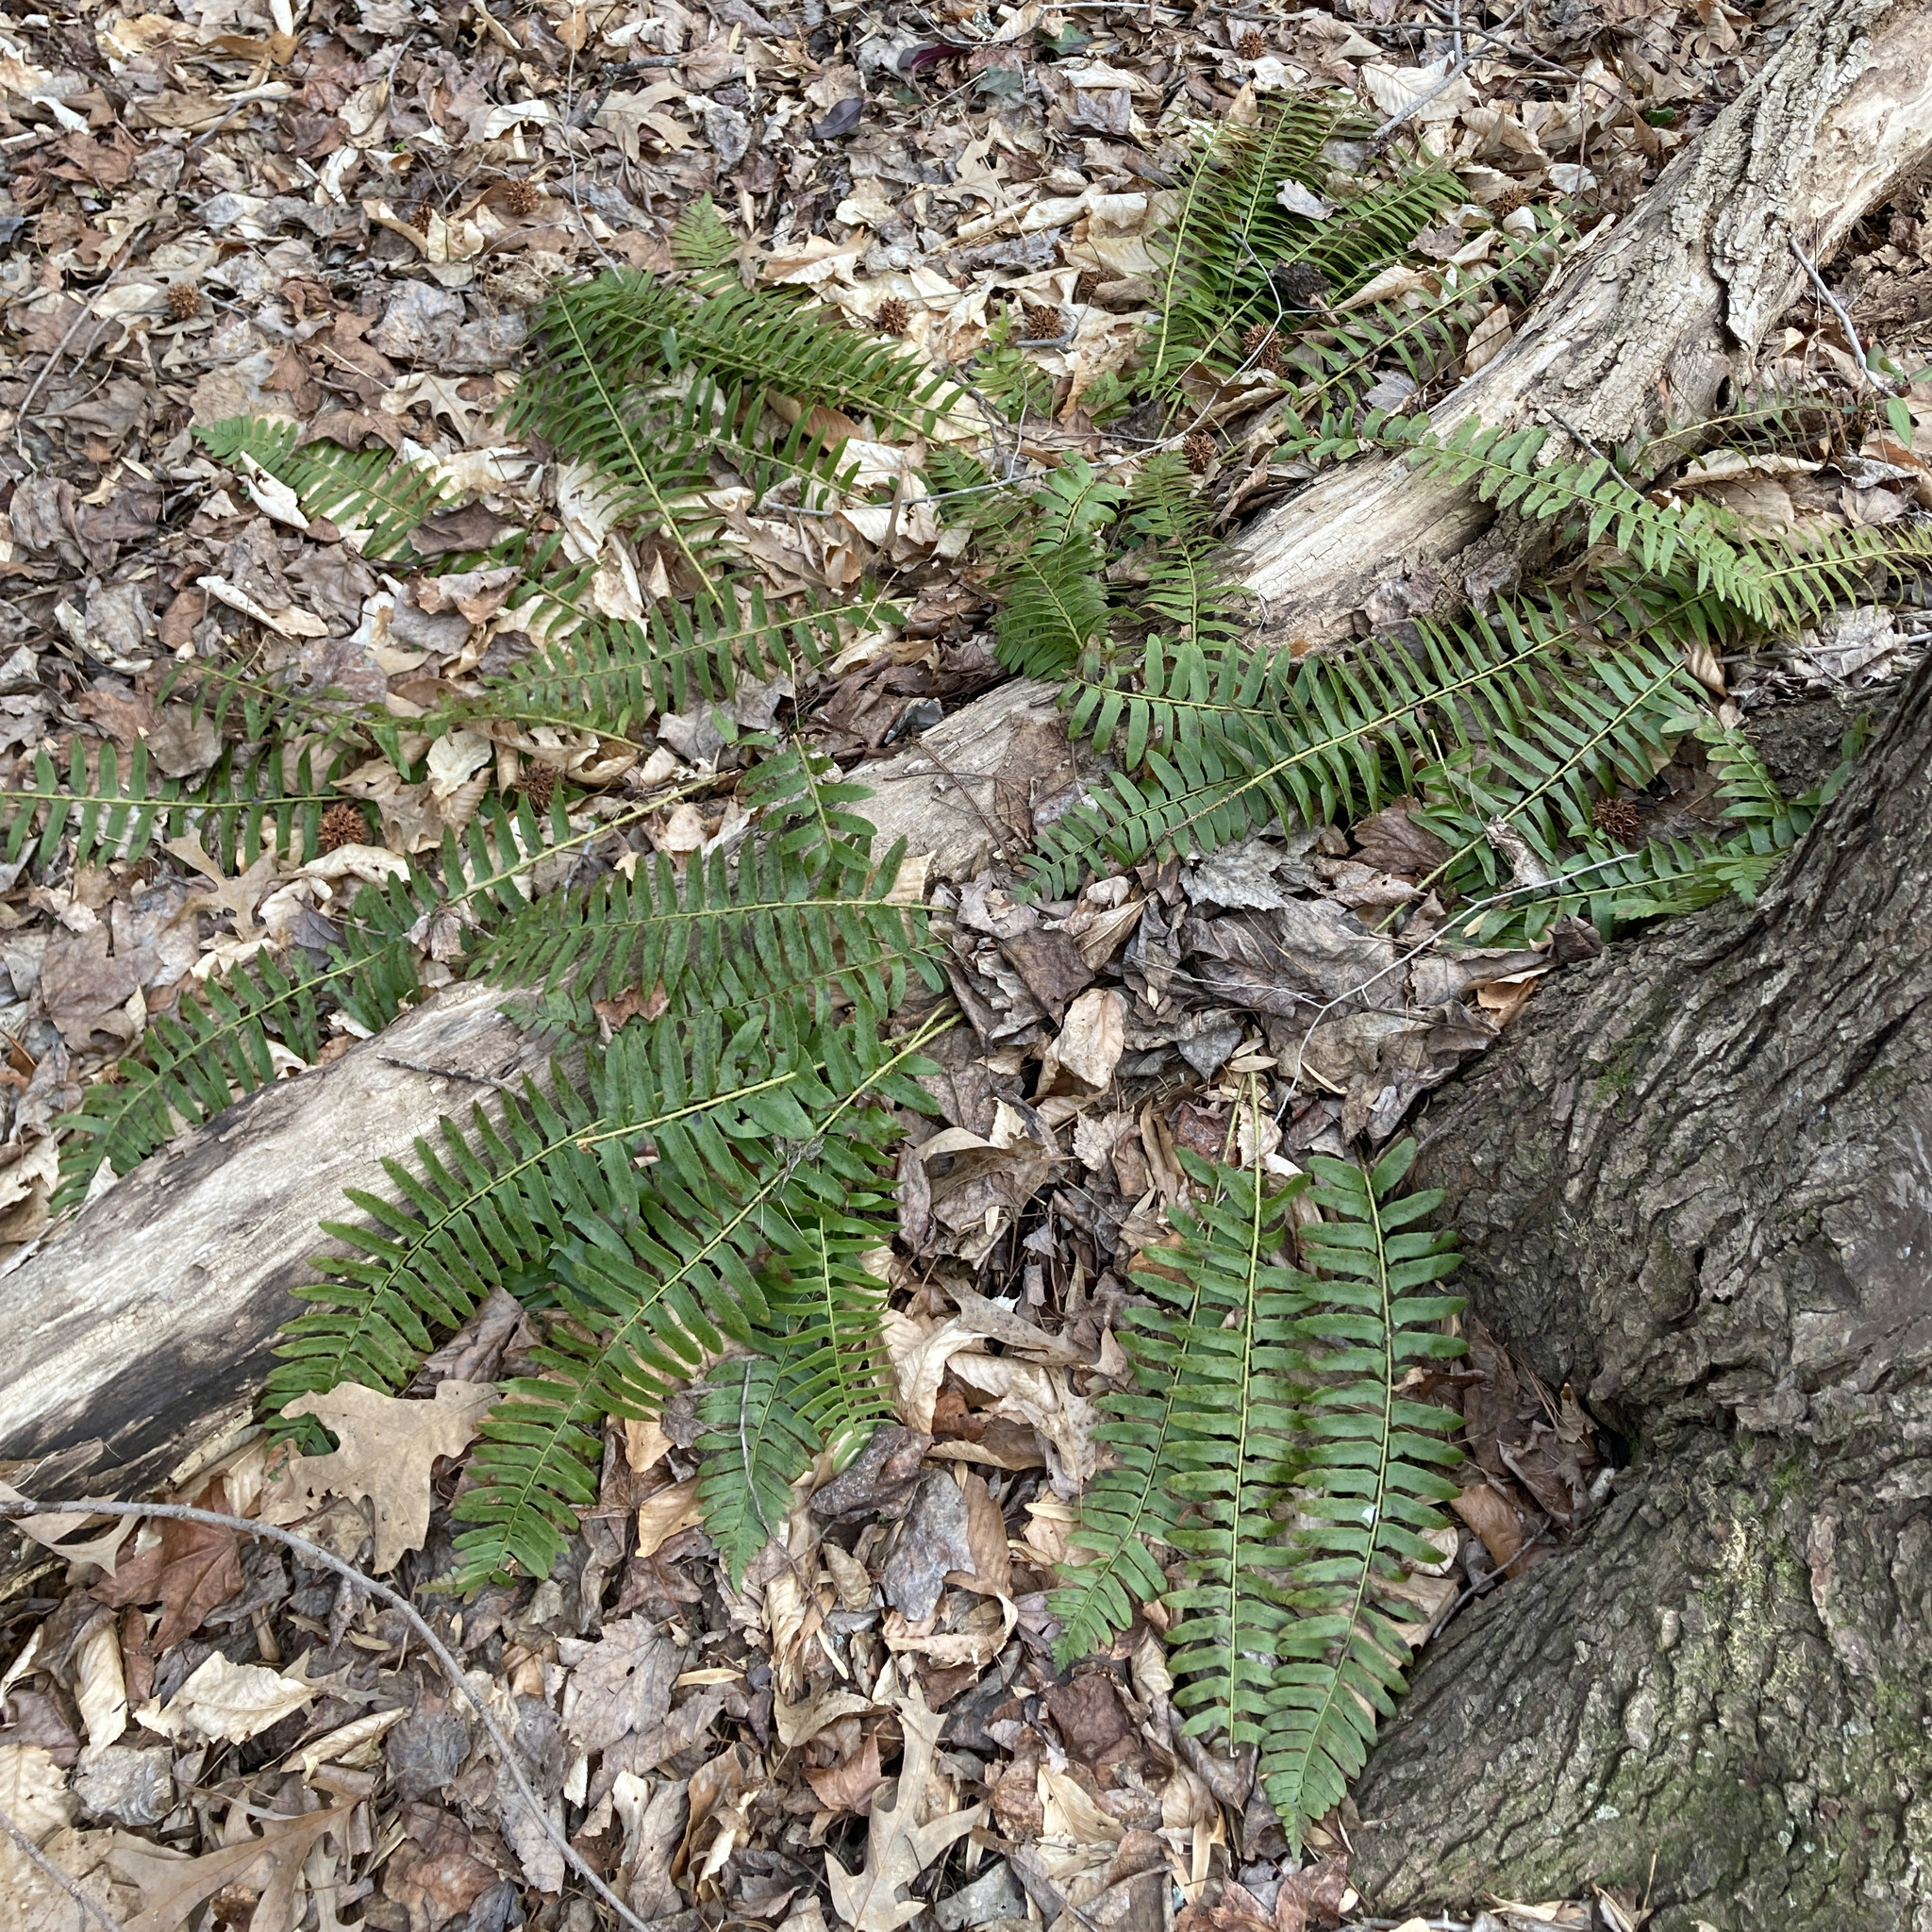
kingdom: Plantae
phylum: Tracheophyta
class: Polypodiopsida
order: Polypodiales
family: Dryopteridaceae
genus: Polystichum
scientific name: Polystichum acrostichoides
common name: Christmas fern
